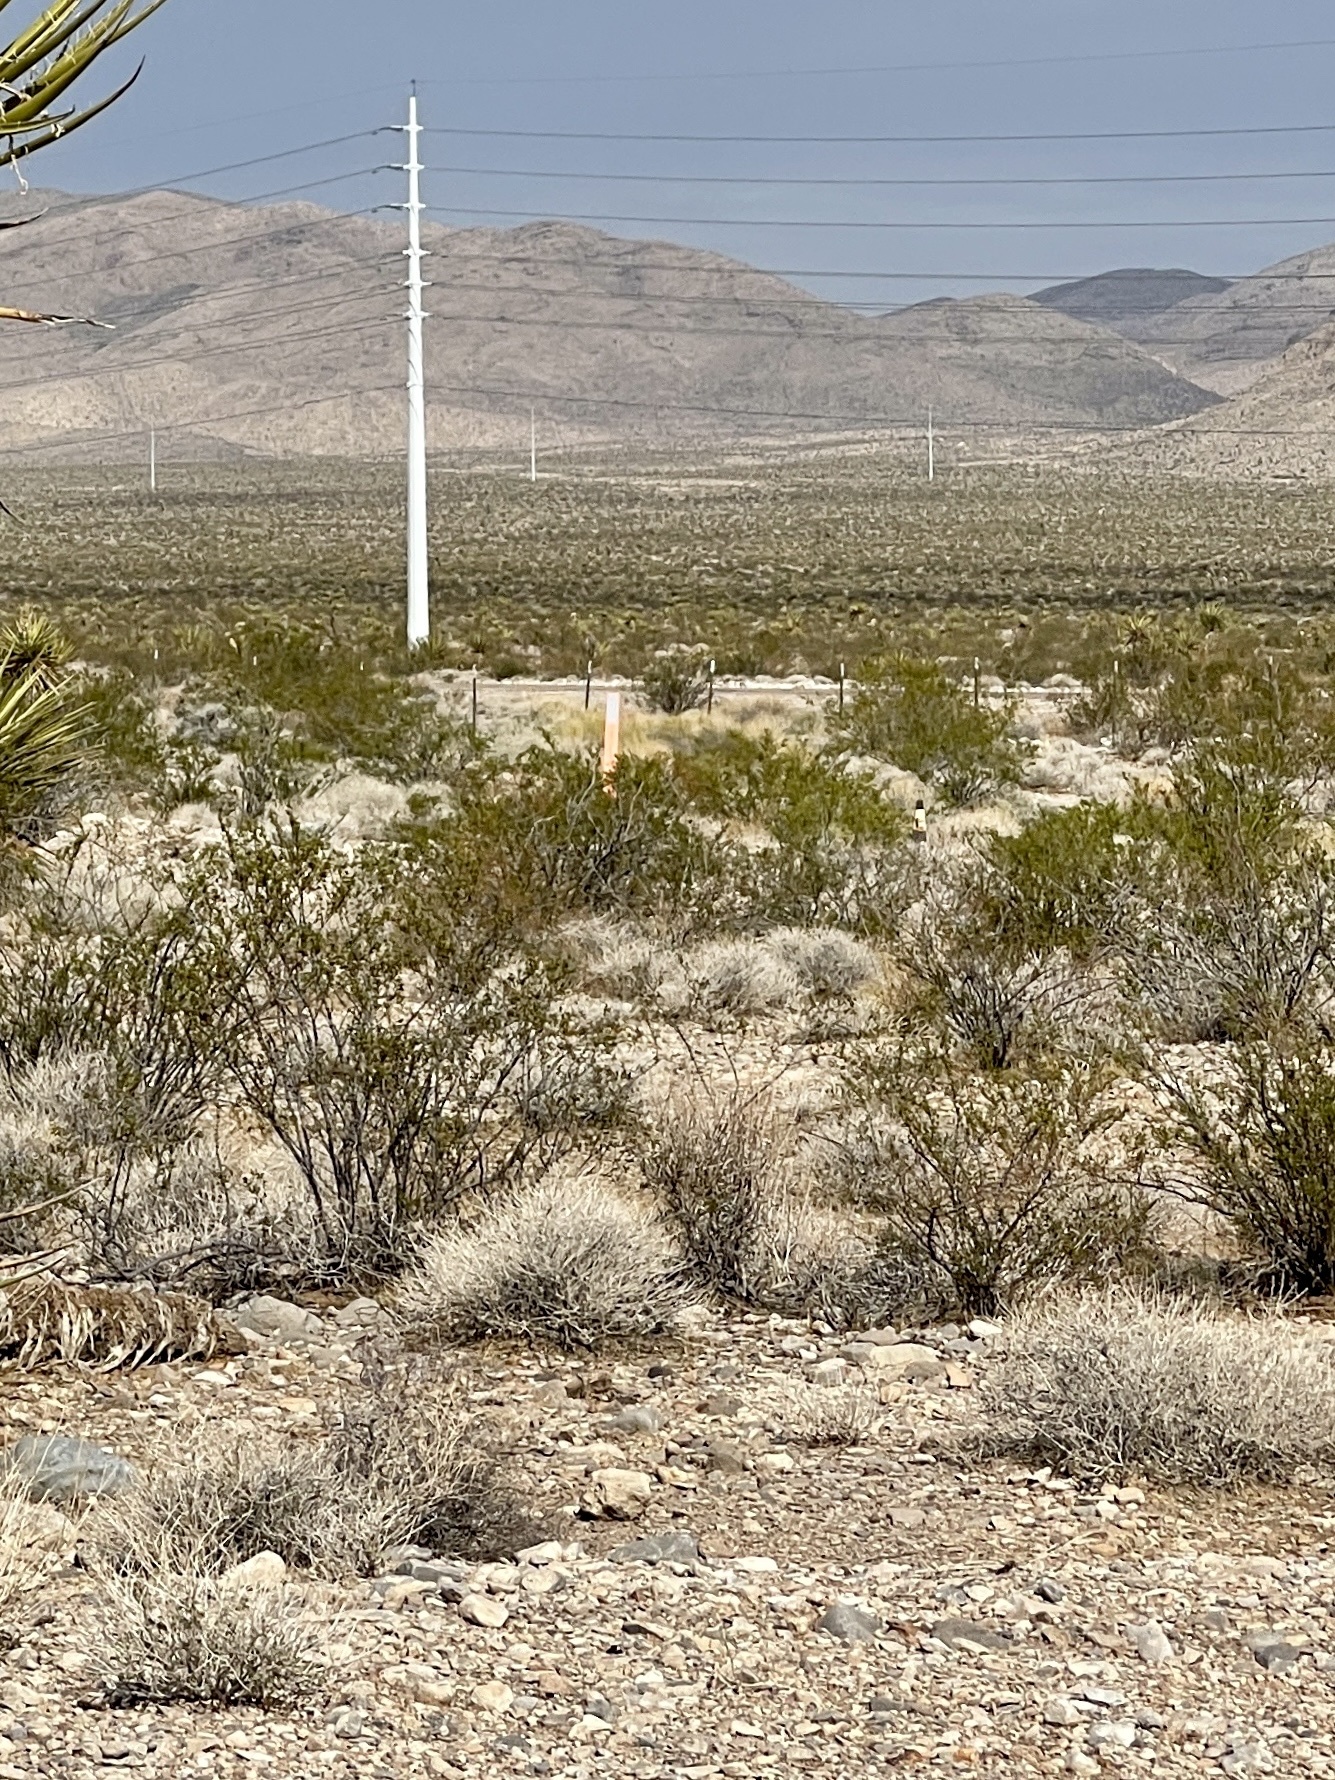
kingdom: Plantae
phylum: Tracheophyta
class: Magnoliopsida
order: Zygophyllales
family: Zygophyllaceae
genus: Larrea
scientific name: Larrea tridentata
